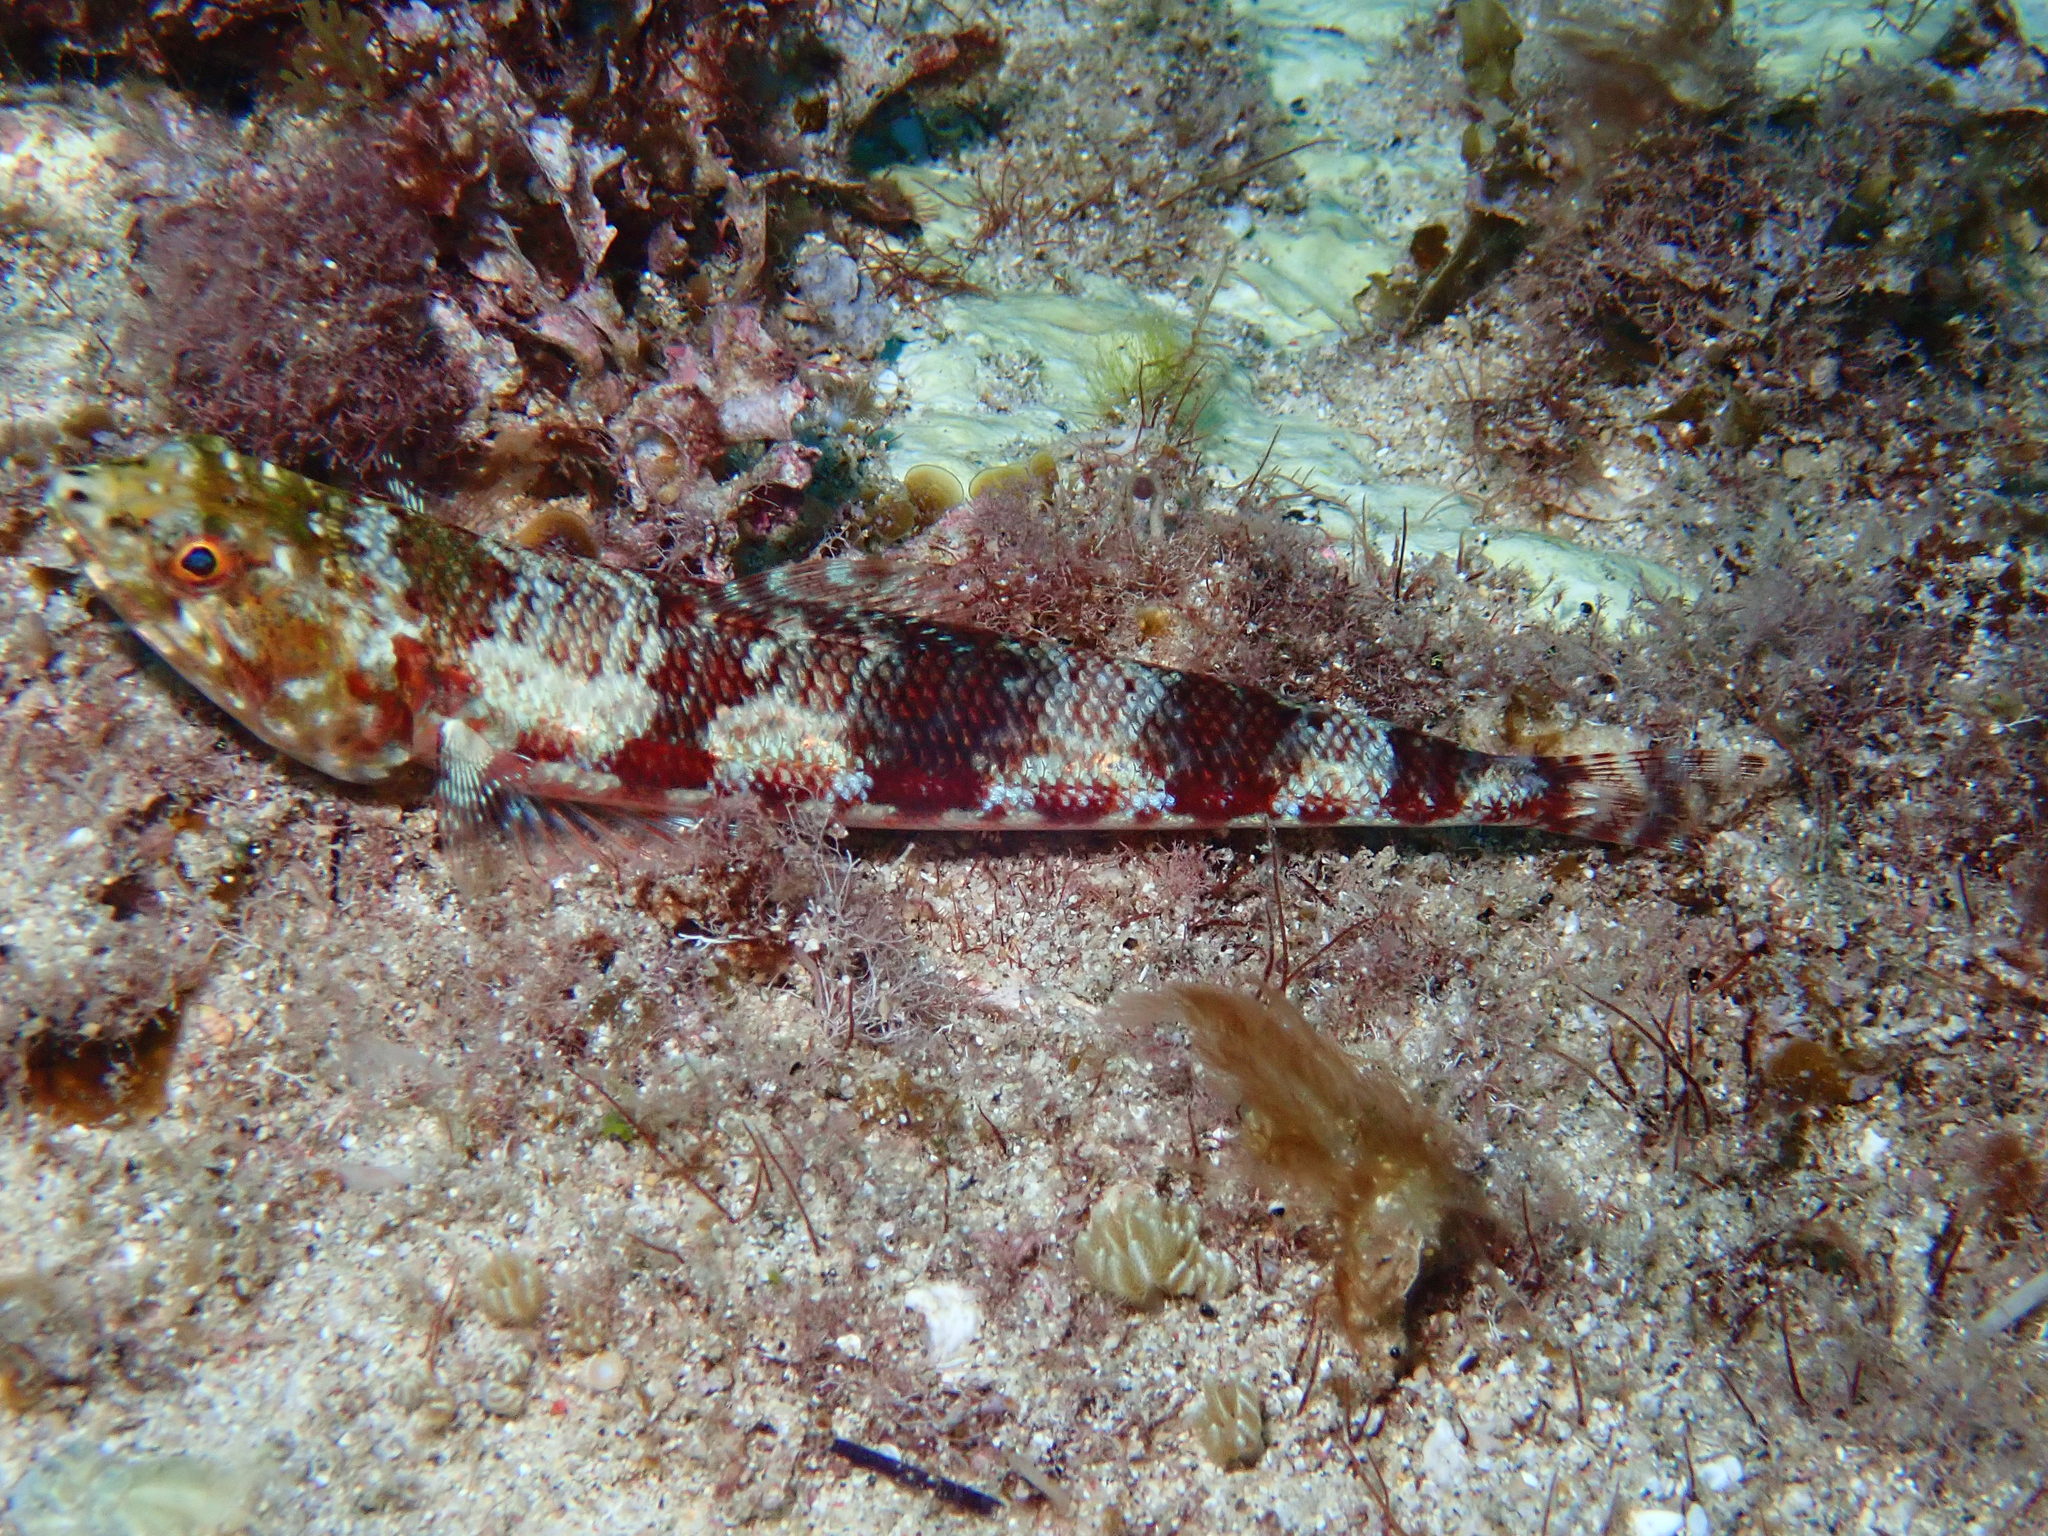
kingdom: Animalia
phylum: Chordata
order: Aulopiformes
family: Synodontidae
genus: Synodus
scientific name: Synodus variegatus
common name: Variegated lizardfish
